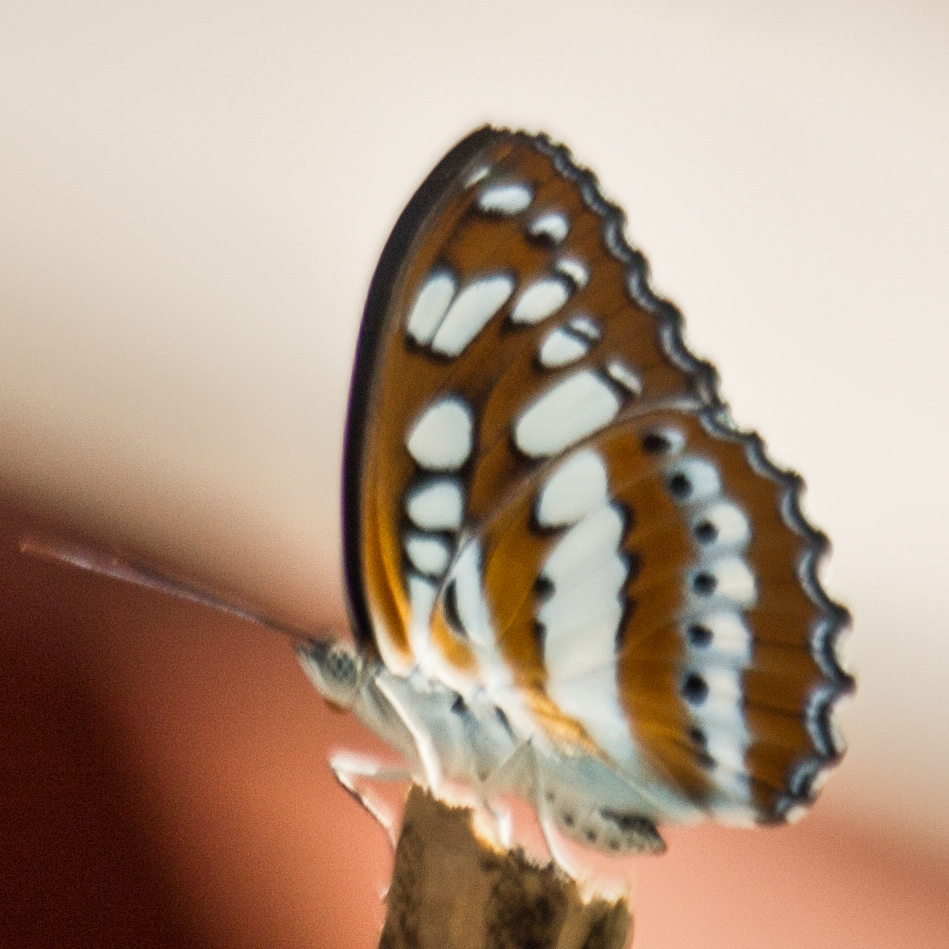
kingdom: Animalia
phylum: Arthropoda
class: Insecta
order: Lepidoptera
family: Nymphalidae
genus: Parathyma
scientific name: Parathyma perius
